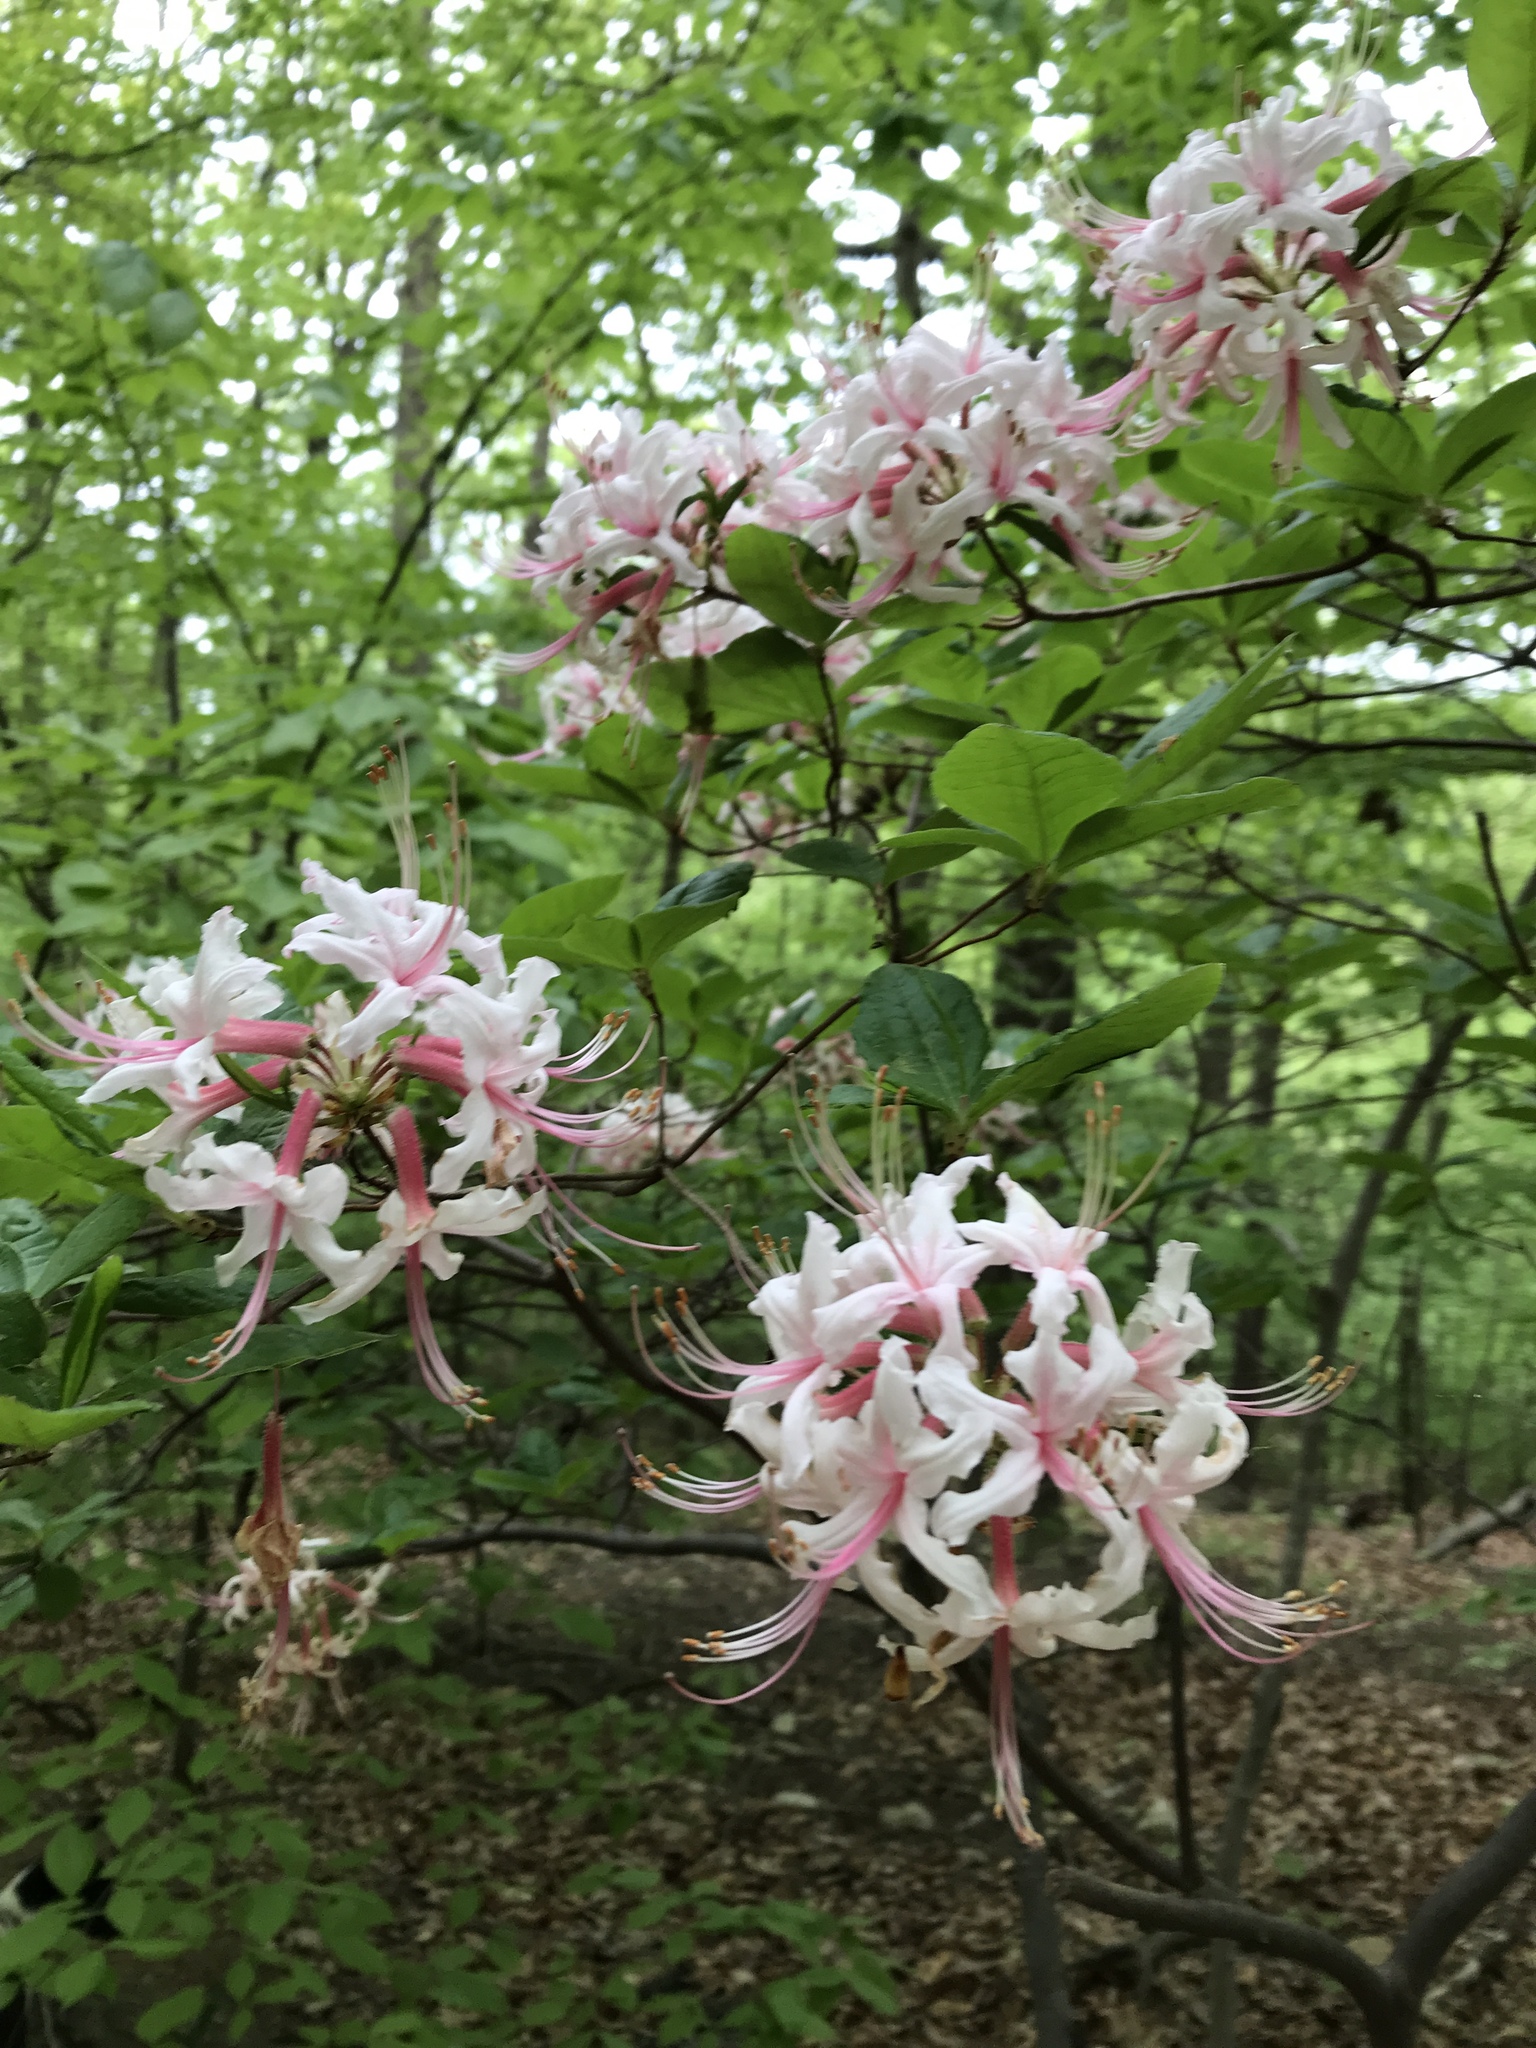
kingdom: Plantae
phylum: Tracheophyta
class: Magnoliopsida
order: Ericales
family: Ericaceae
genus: Rhododendron
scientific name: Rhododendron periclymenoides
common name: Election-pink
